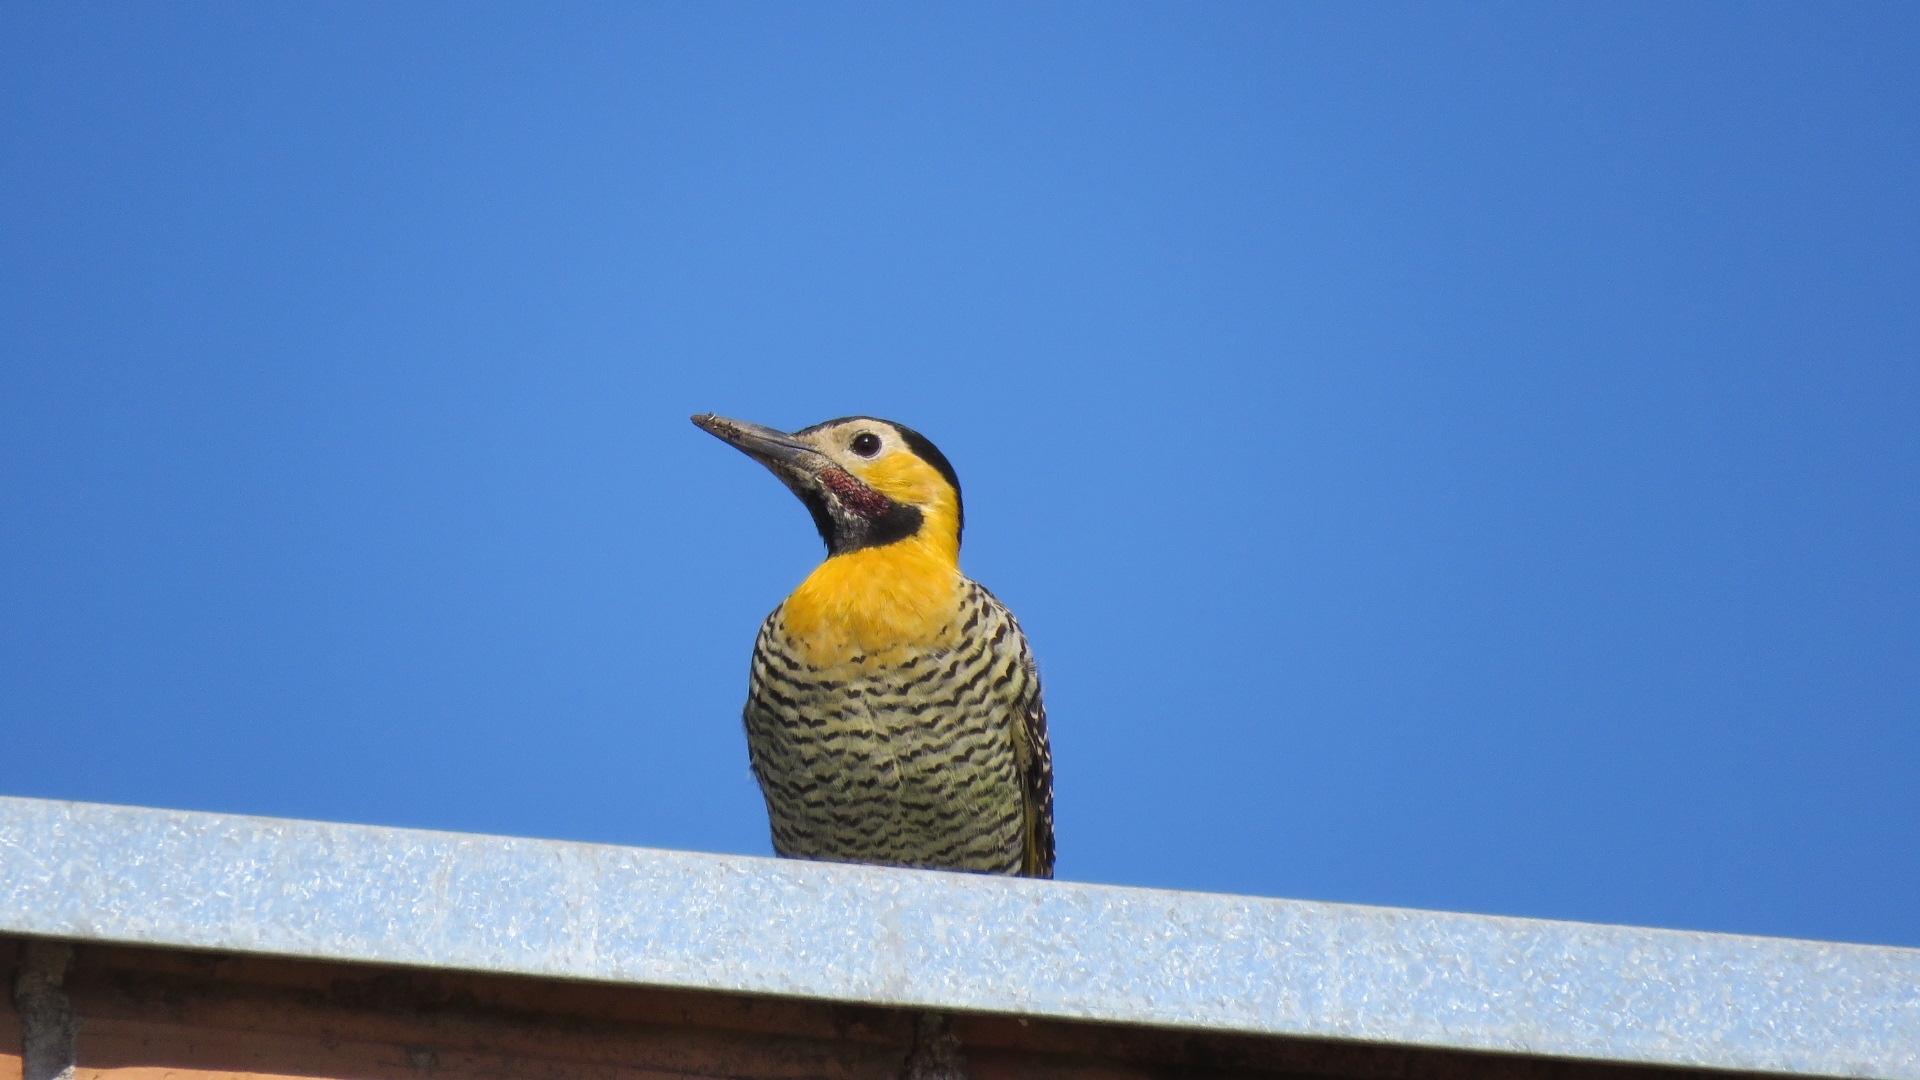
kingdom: Animalia
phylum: Chordata
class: Aves
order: Piciformes
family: Picidae
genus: Colaptes
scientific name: Colaptes campestris
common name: Campo flicker
